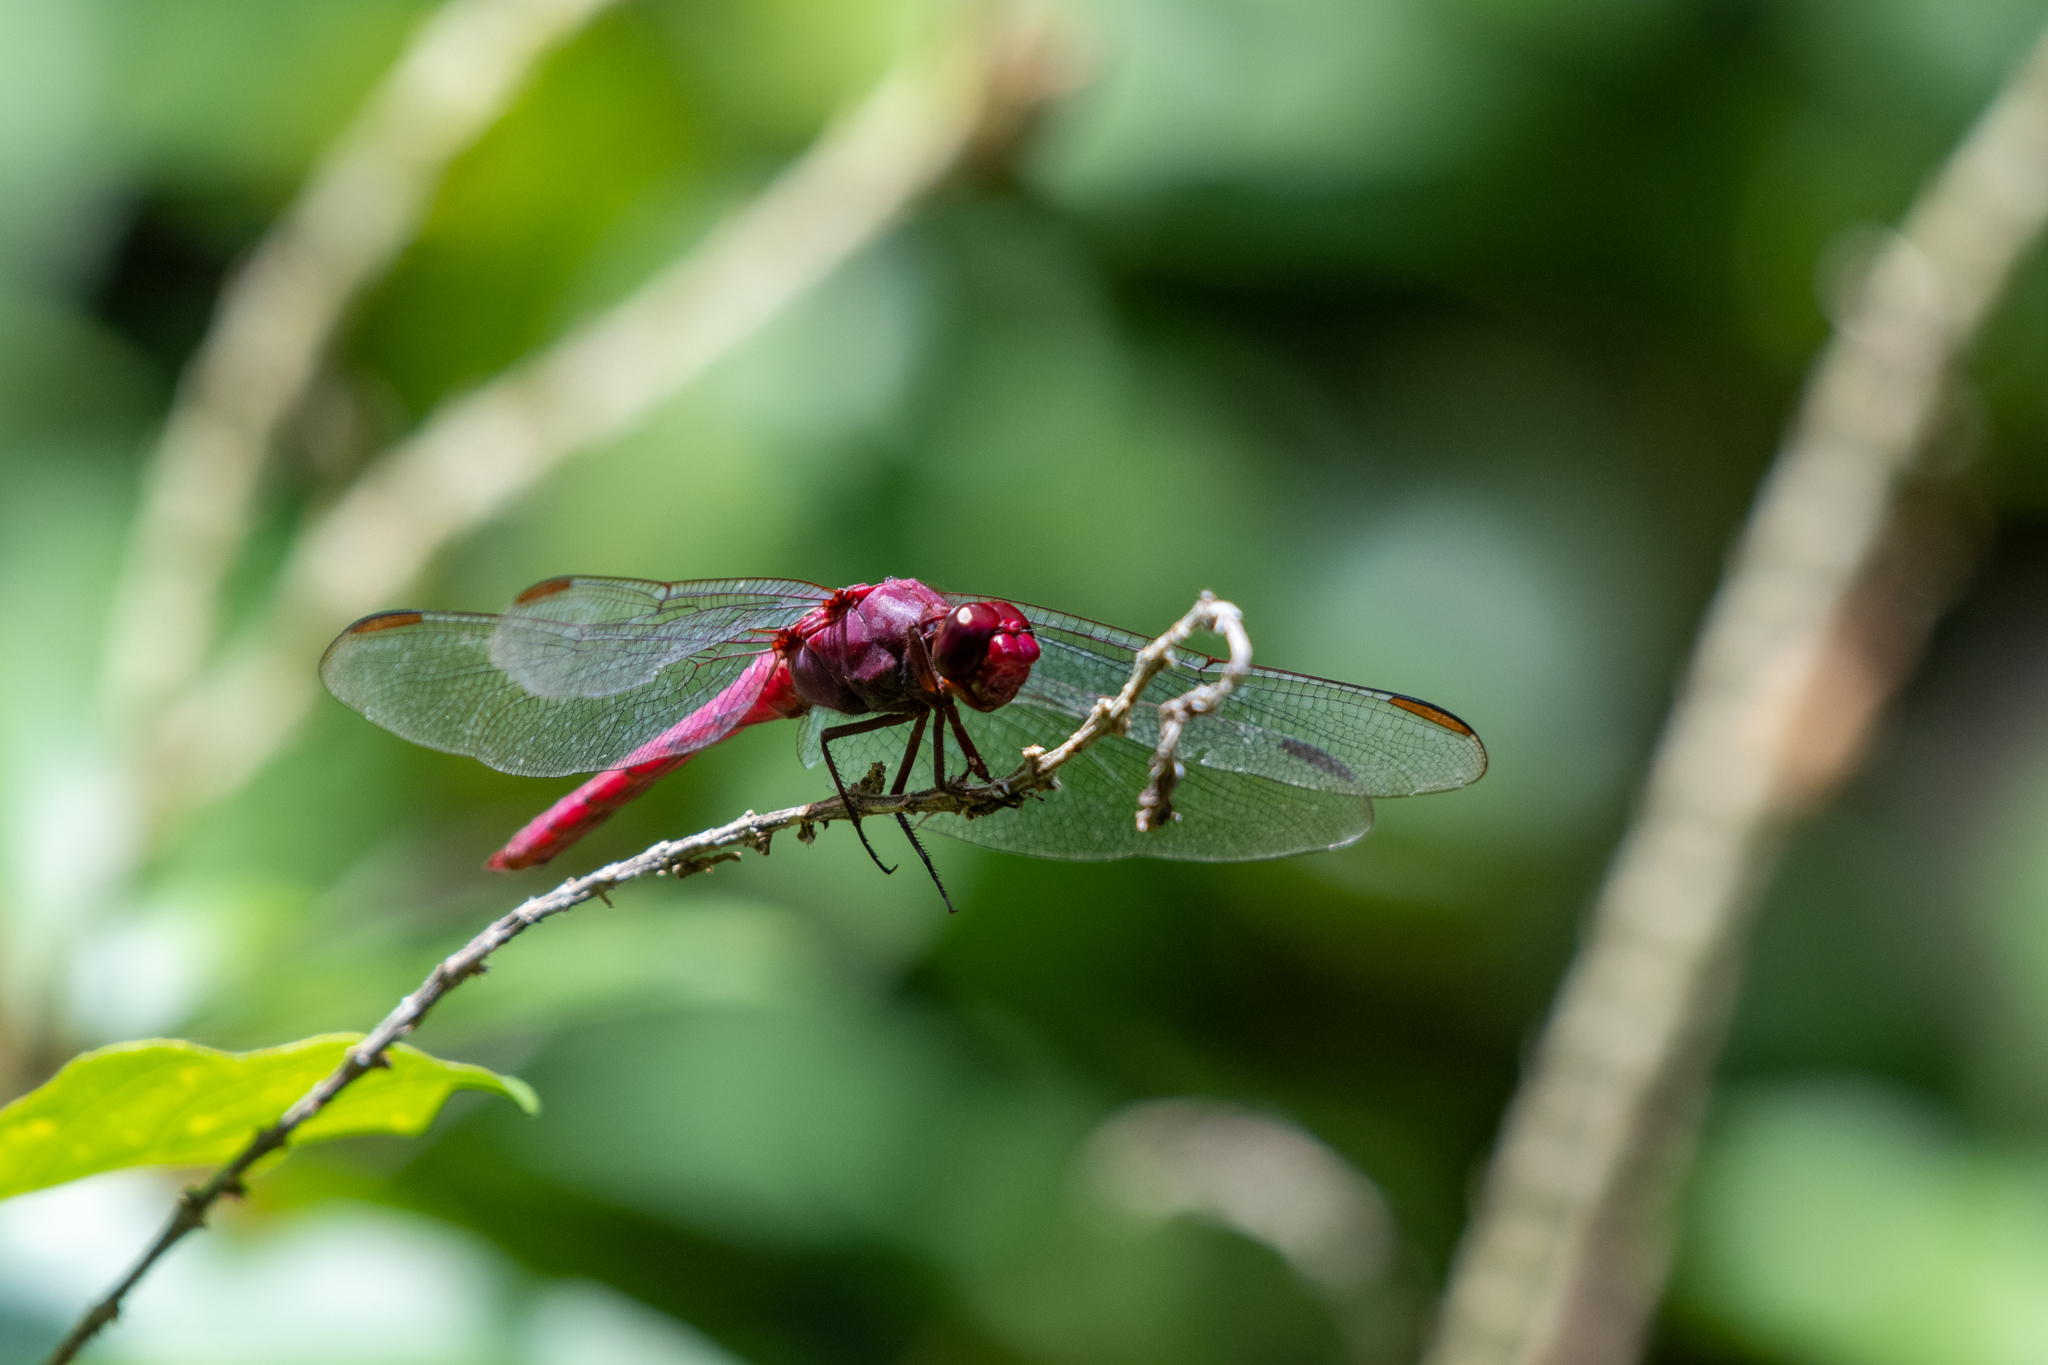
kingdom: Animalia
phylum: Arthropoda
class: Insecta
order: Odonata
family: Libellulidae
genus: Orthemis
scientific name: Orthemis discolor
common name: Carmine skimmer
